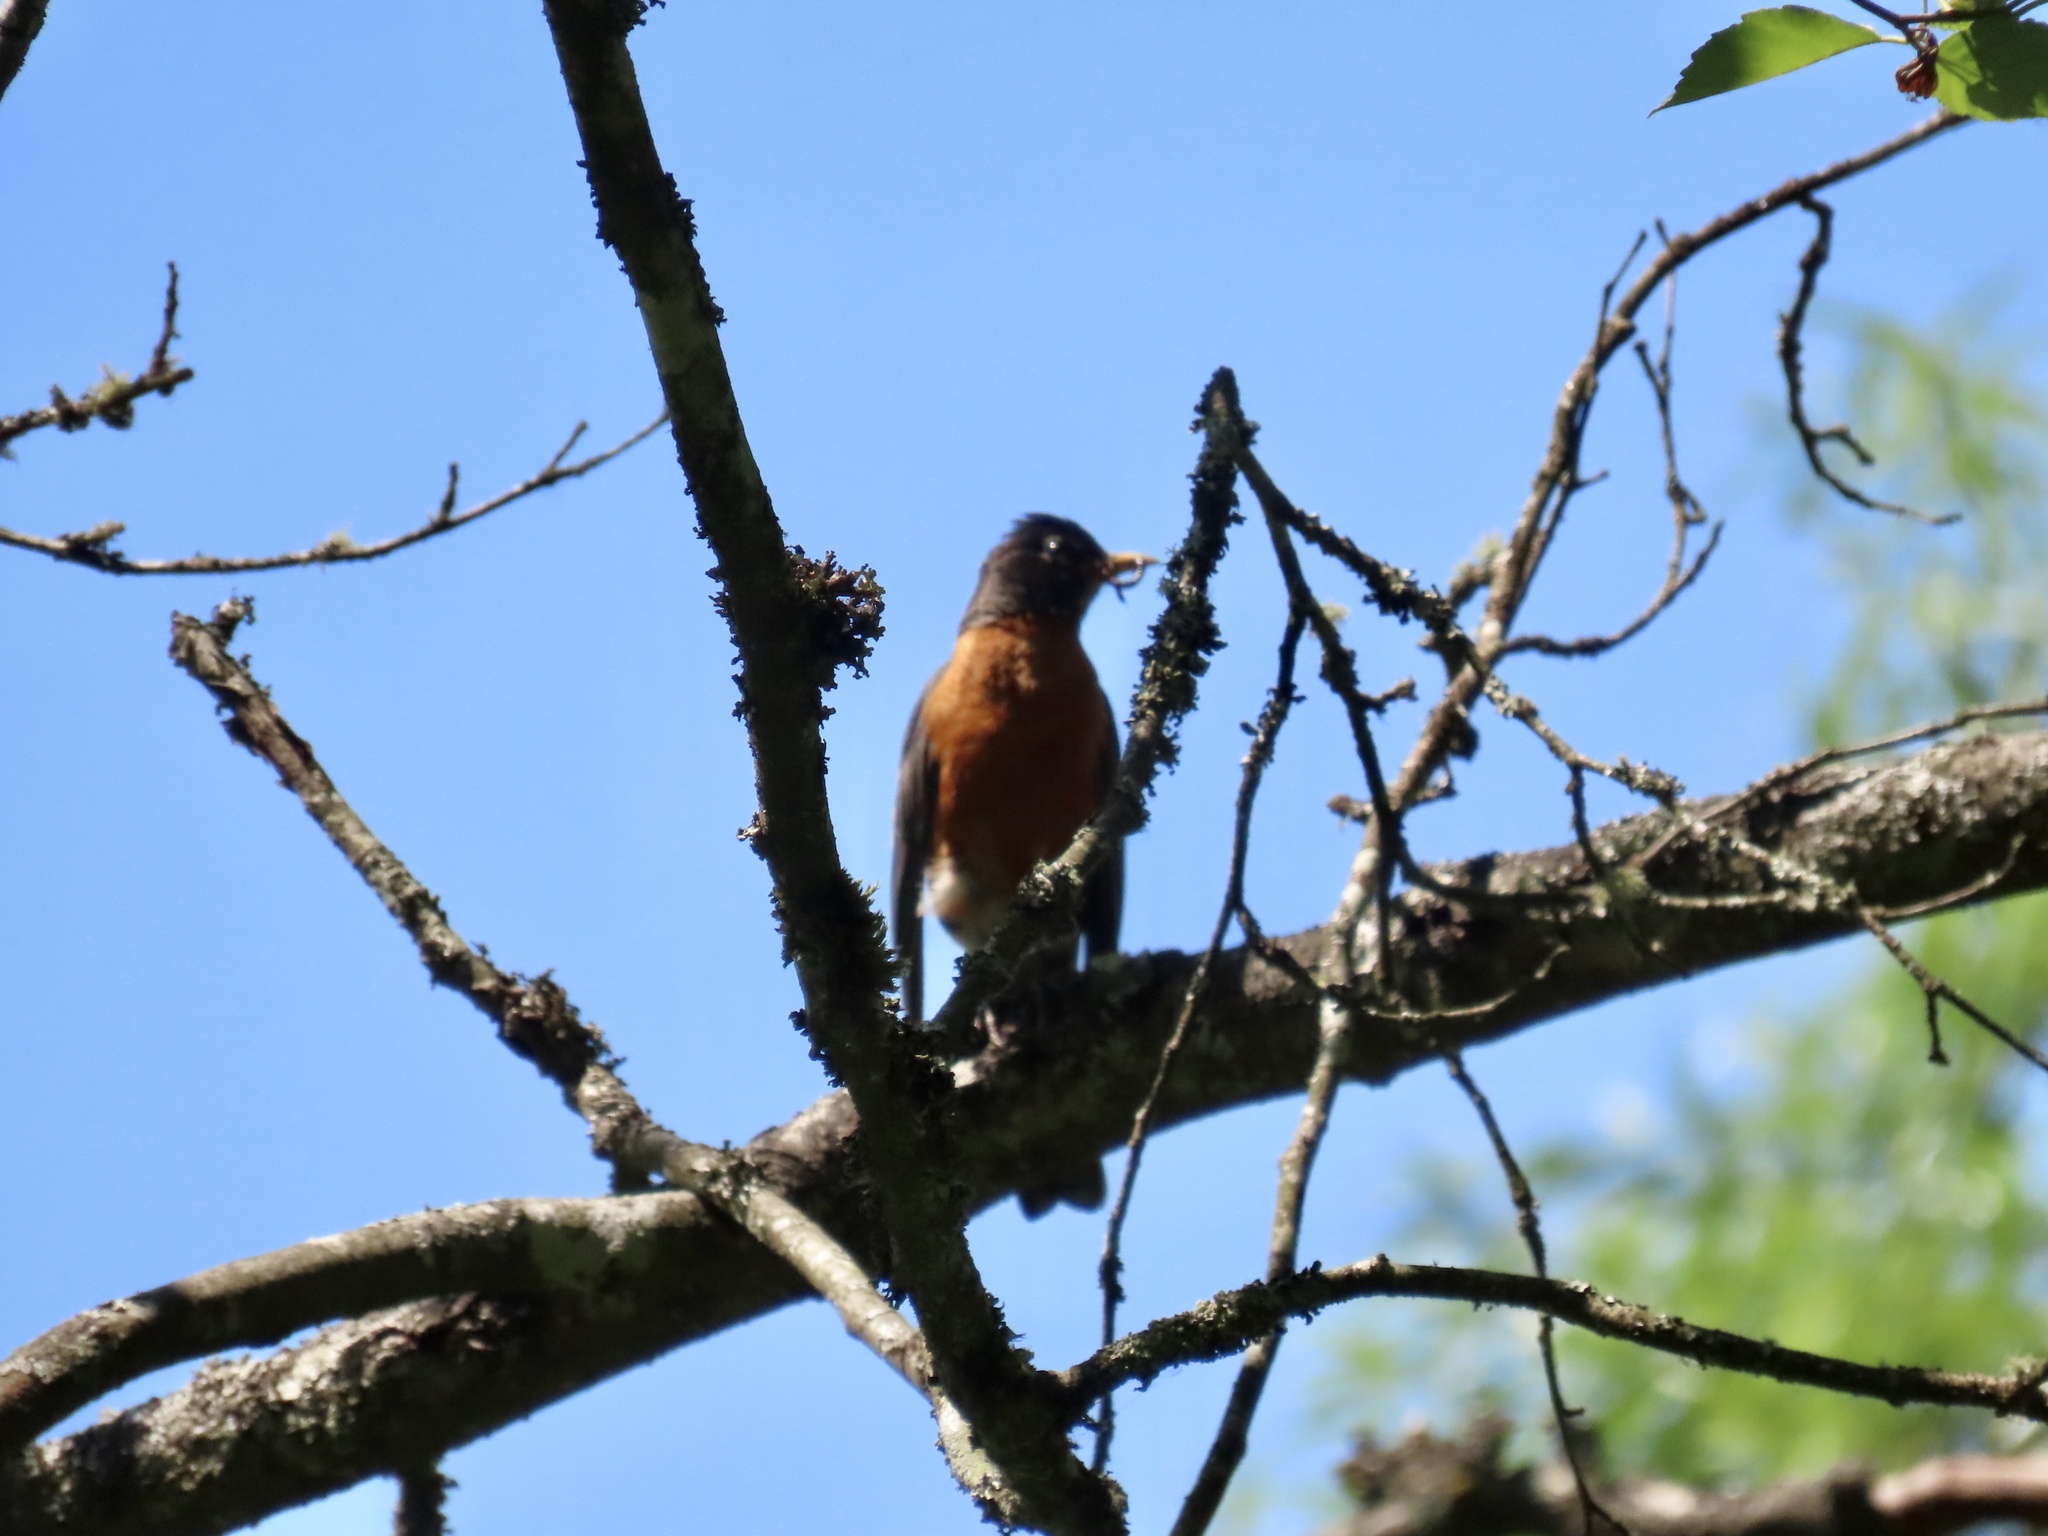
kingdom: Animalia
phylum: Chordata
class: Aves
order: Passeriformes
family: Turdidae
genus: Turdus
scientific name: Turdus migratorius
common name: American robin
